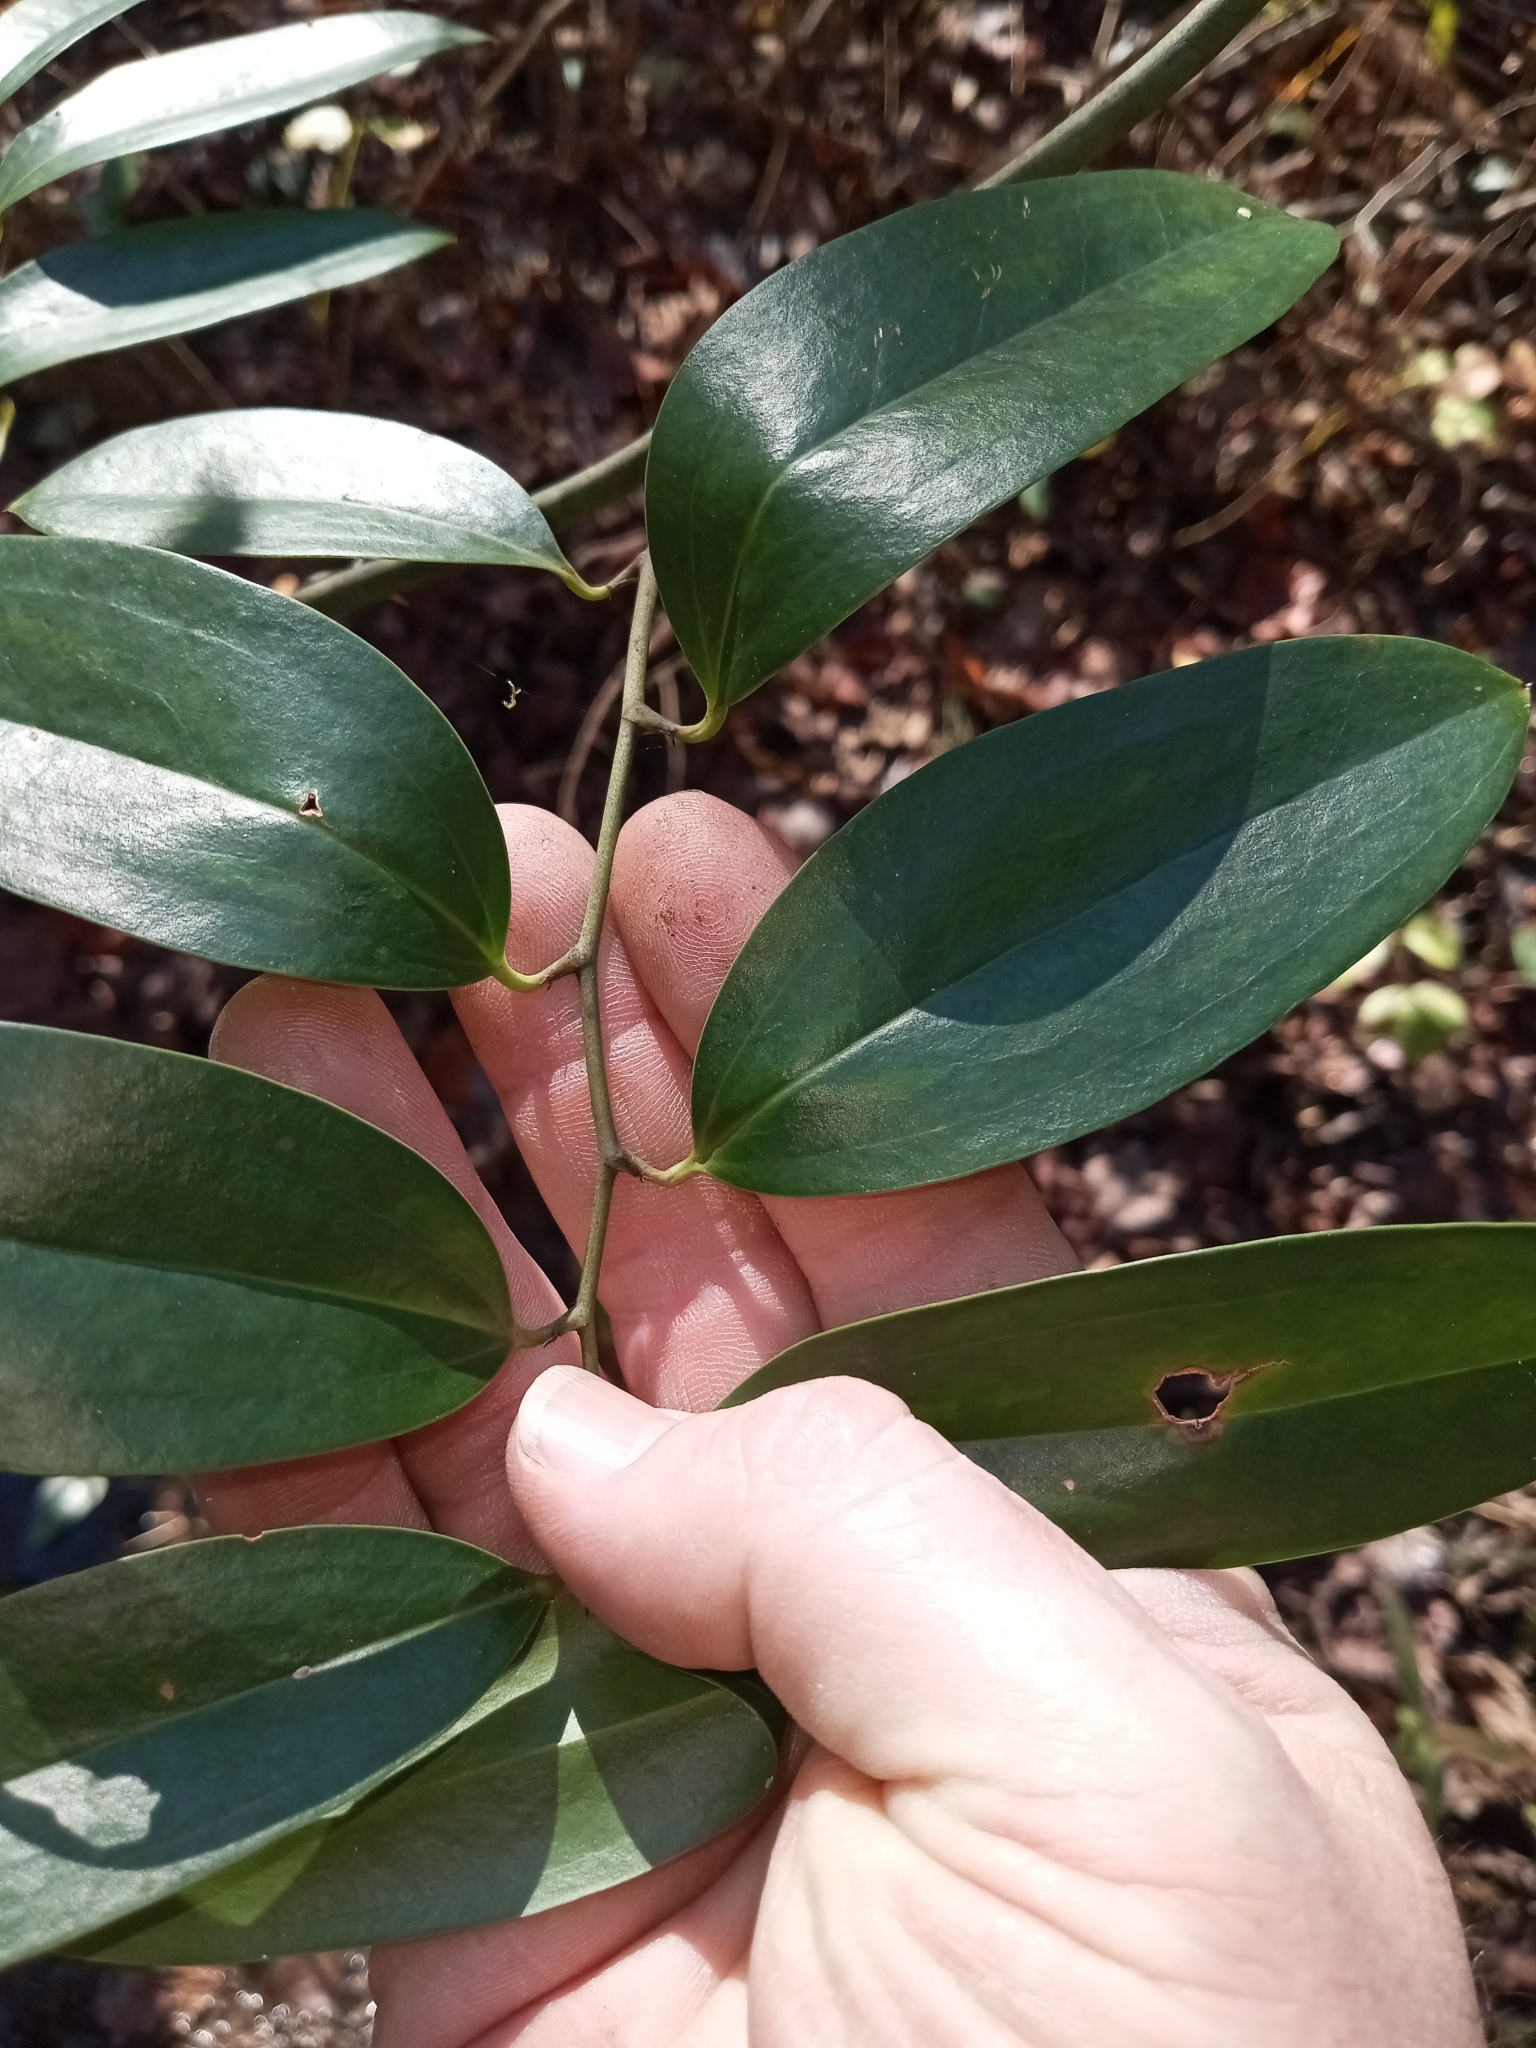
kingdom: Plantae
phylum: Tracheophyta
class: Liliopsida
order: Liliales
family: Smilacaceae
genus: Smilax
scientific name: Smilax maritima
